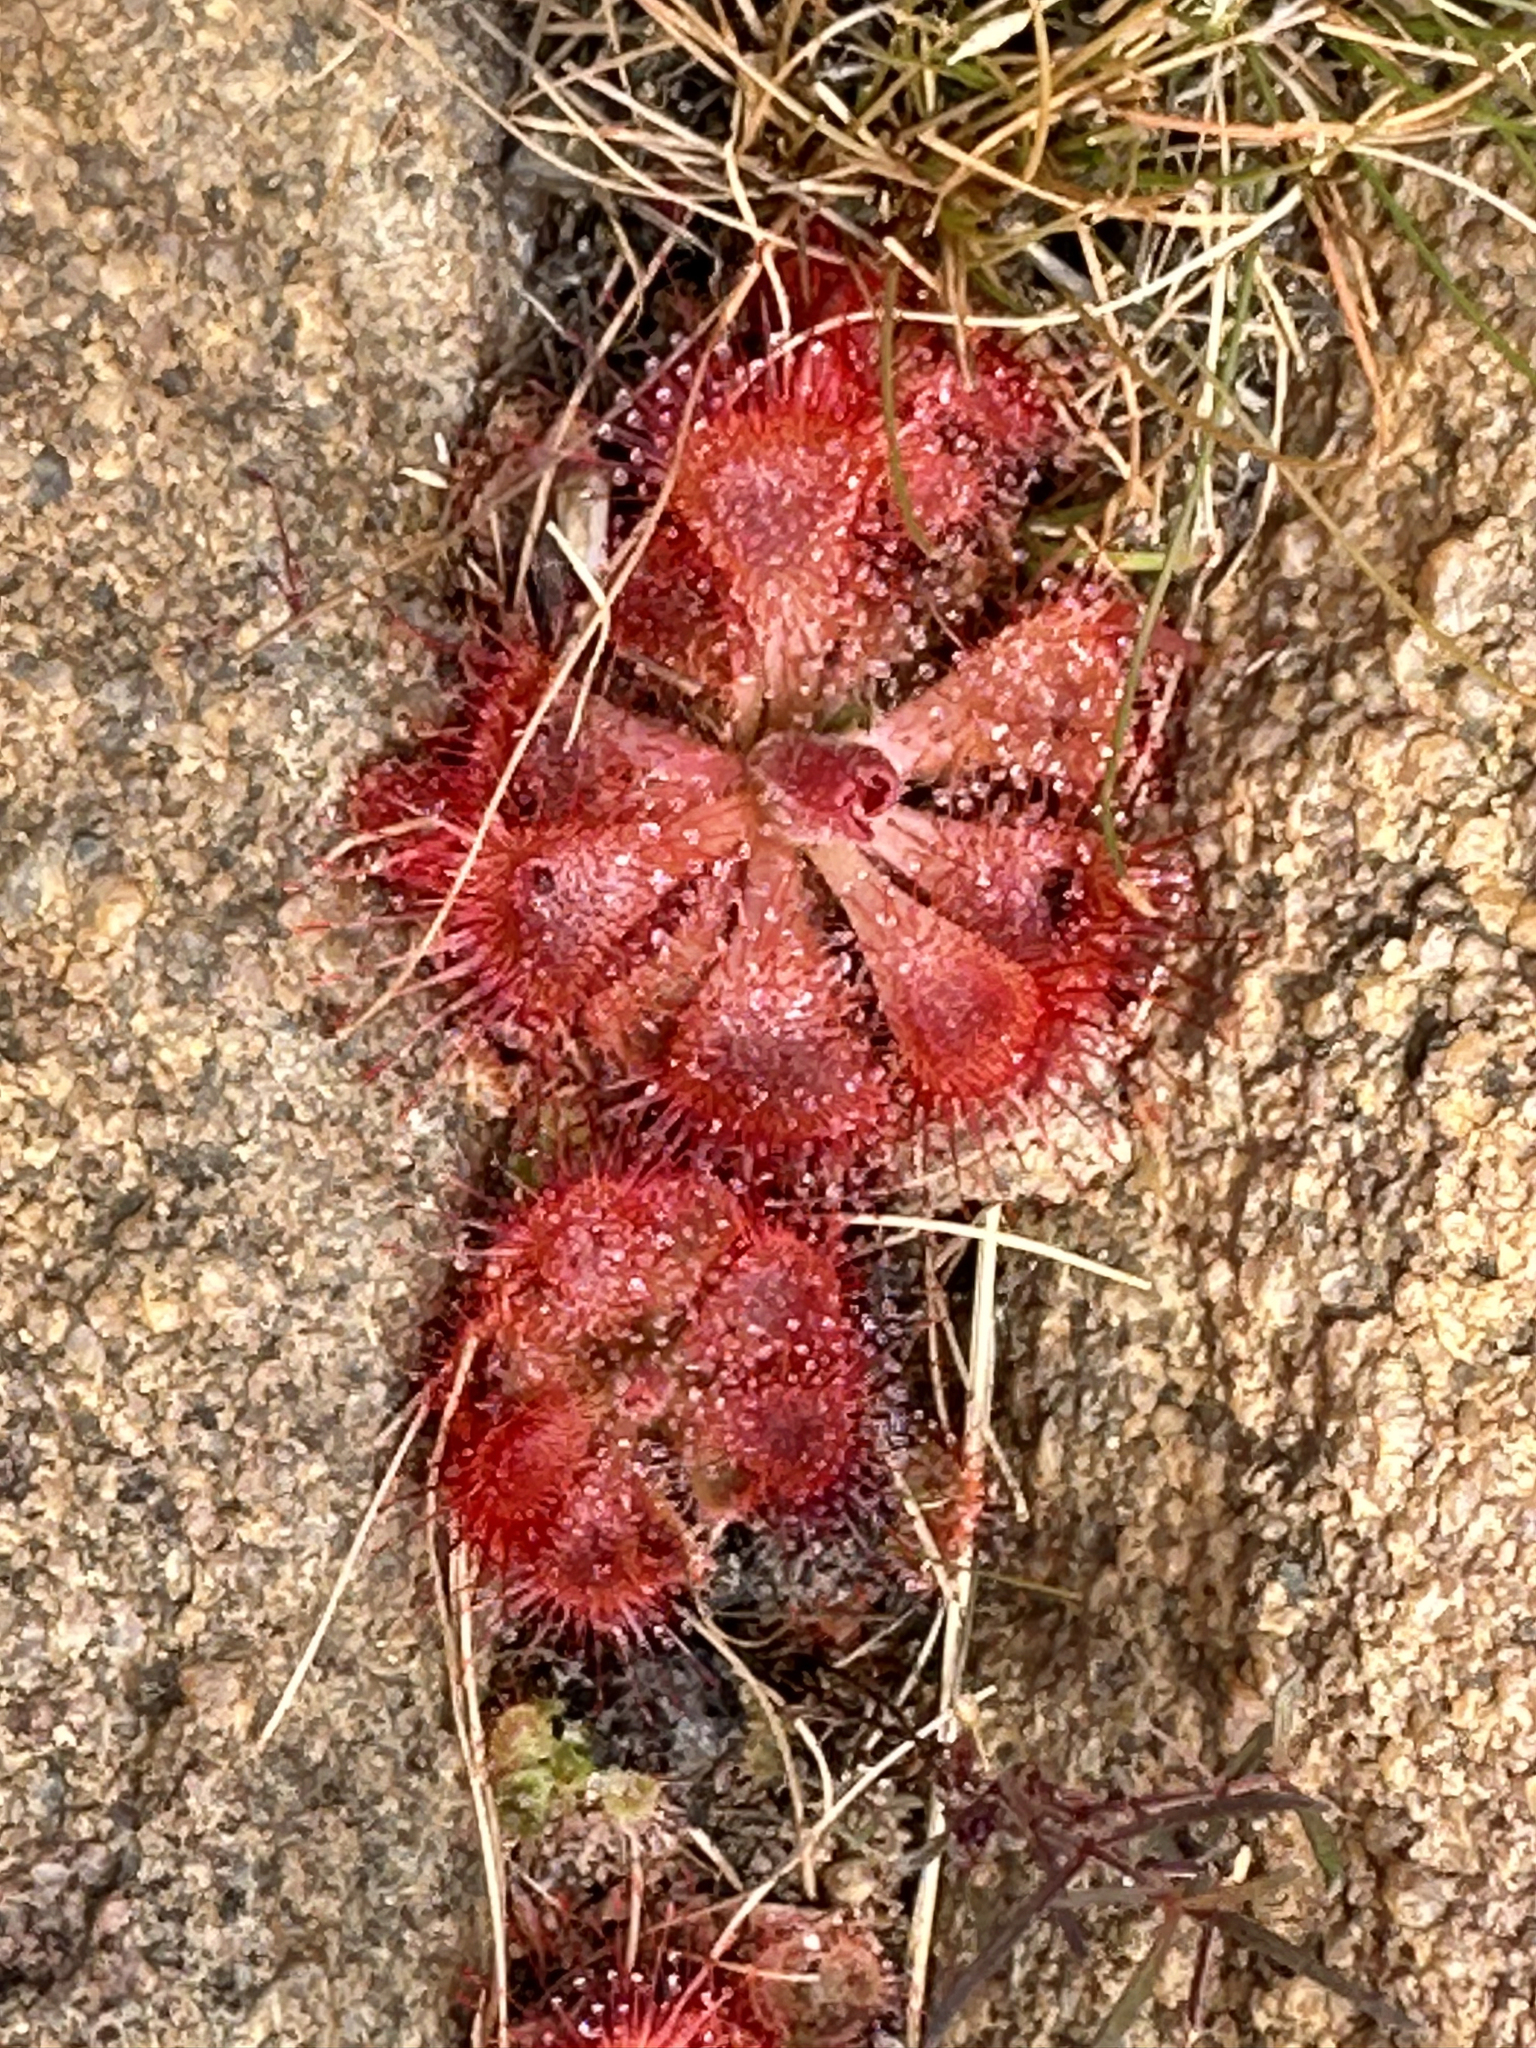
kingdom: Plantae
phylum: Tracheophyta
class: Magnoliopsida
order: Caryophyllales
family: Droseraceae
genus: Drosera
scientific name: Drosera spatulata
